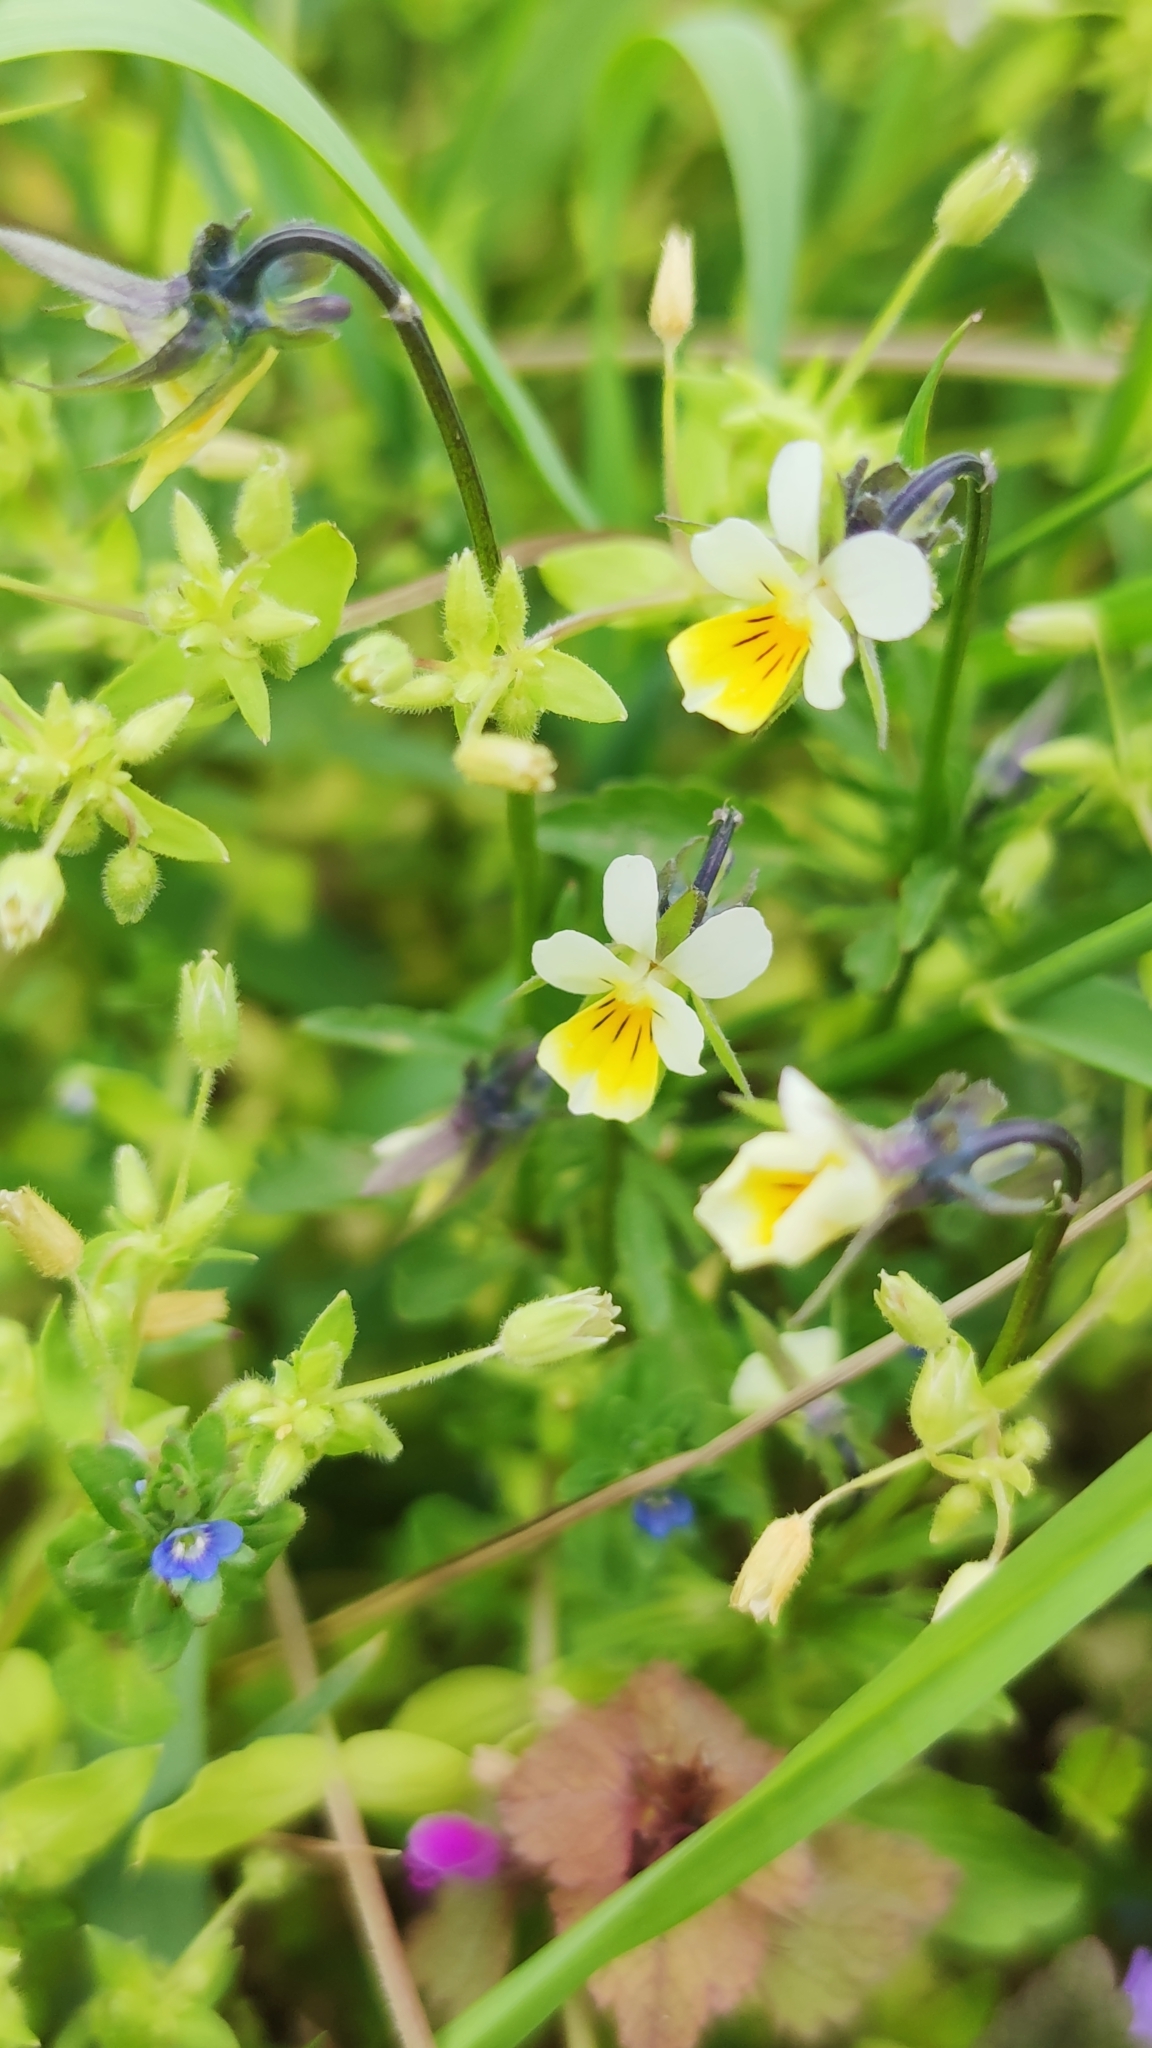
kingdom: Plantae
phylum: Tracheophyta
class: Magnoliopsida
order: Malpighiales
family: Violaceae
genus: Viola
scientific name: Viola arvensis
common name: Field pansy
